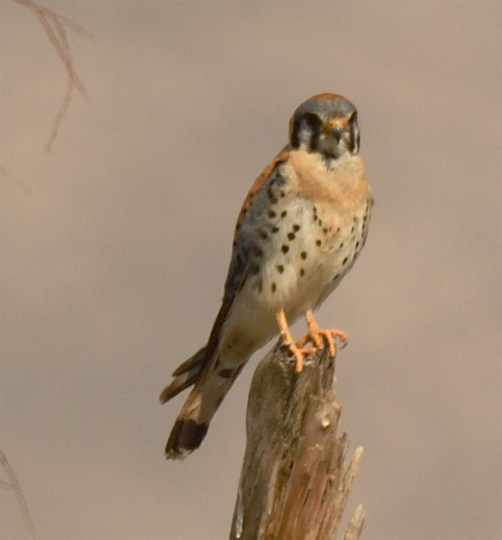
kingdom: Animalia
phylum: Chordata
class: Aves
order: Falconiformes
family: Falconidae
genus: Falco
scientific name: Falco sparverius
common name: American kestrel
